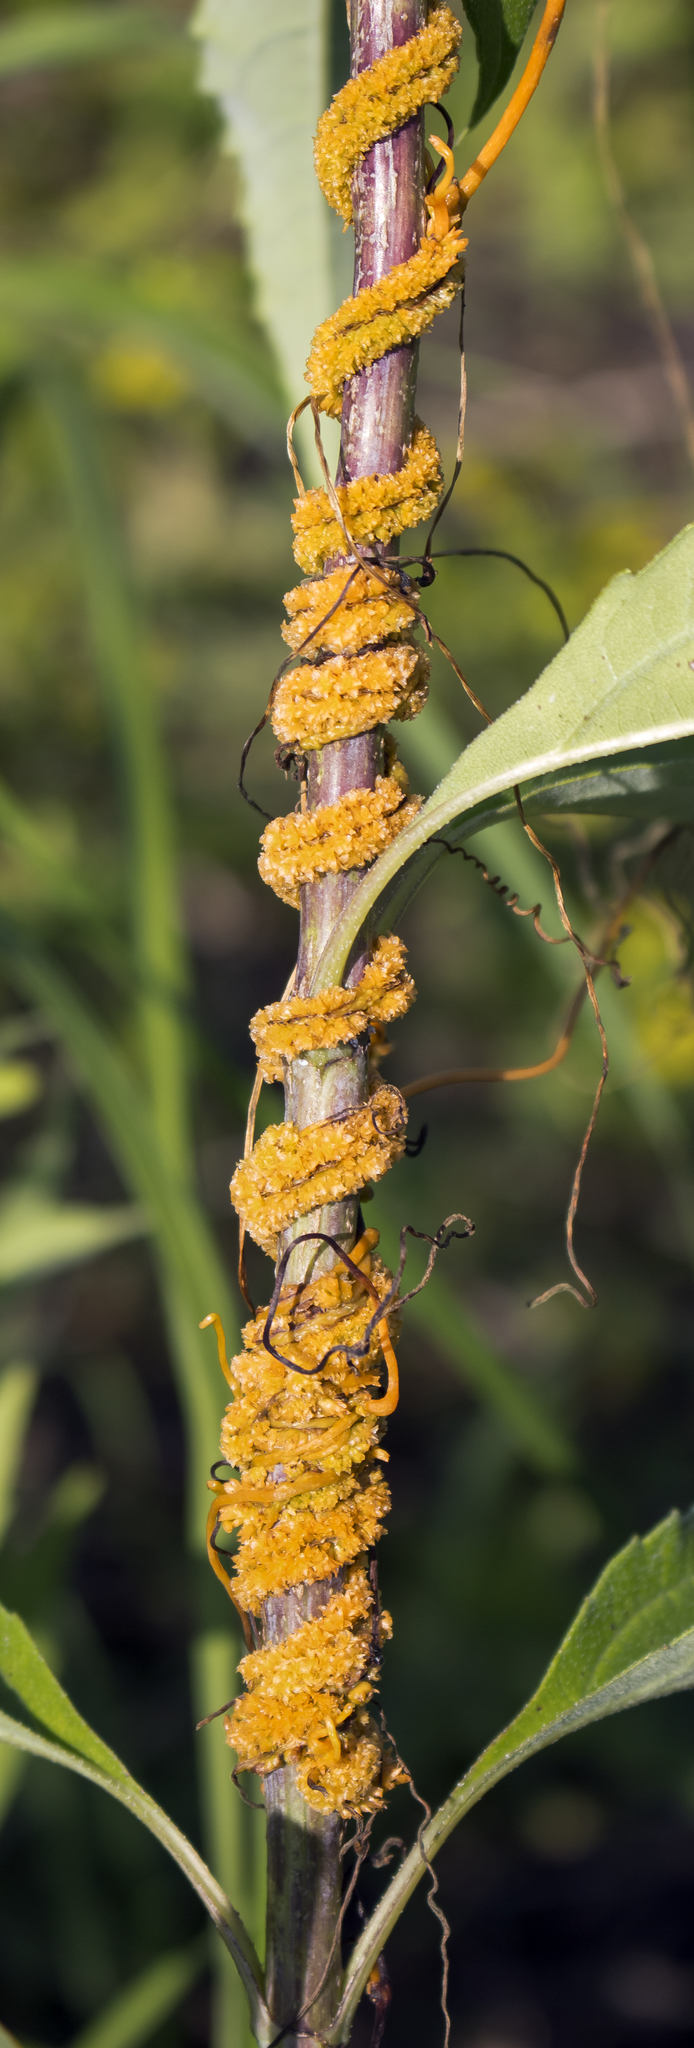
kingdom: Plantae
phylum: Tracheophyta
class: Magnoliopsida
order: Solanales
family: Convolvulaceae
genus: Cuscuta
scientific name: Cuscuta glomerata
